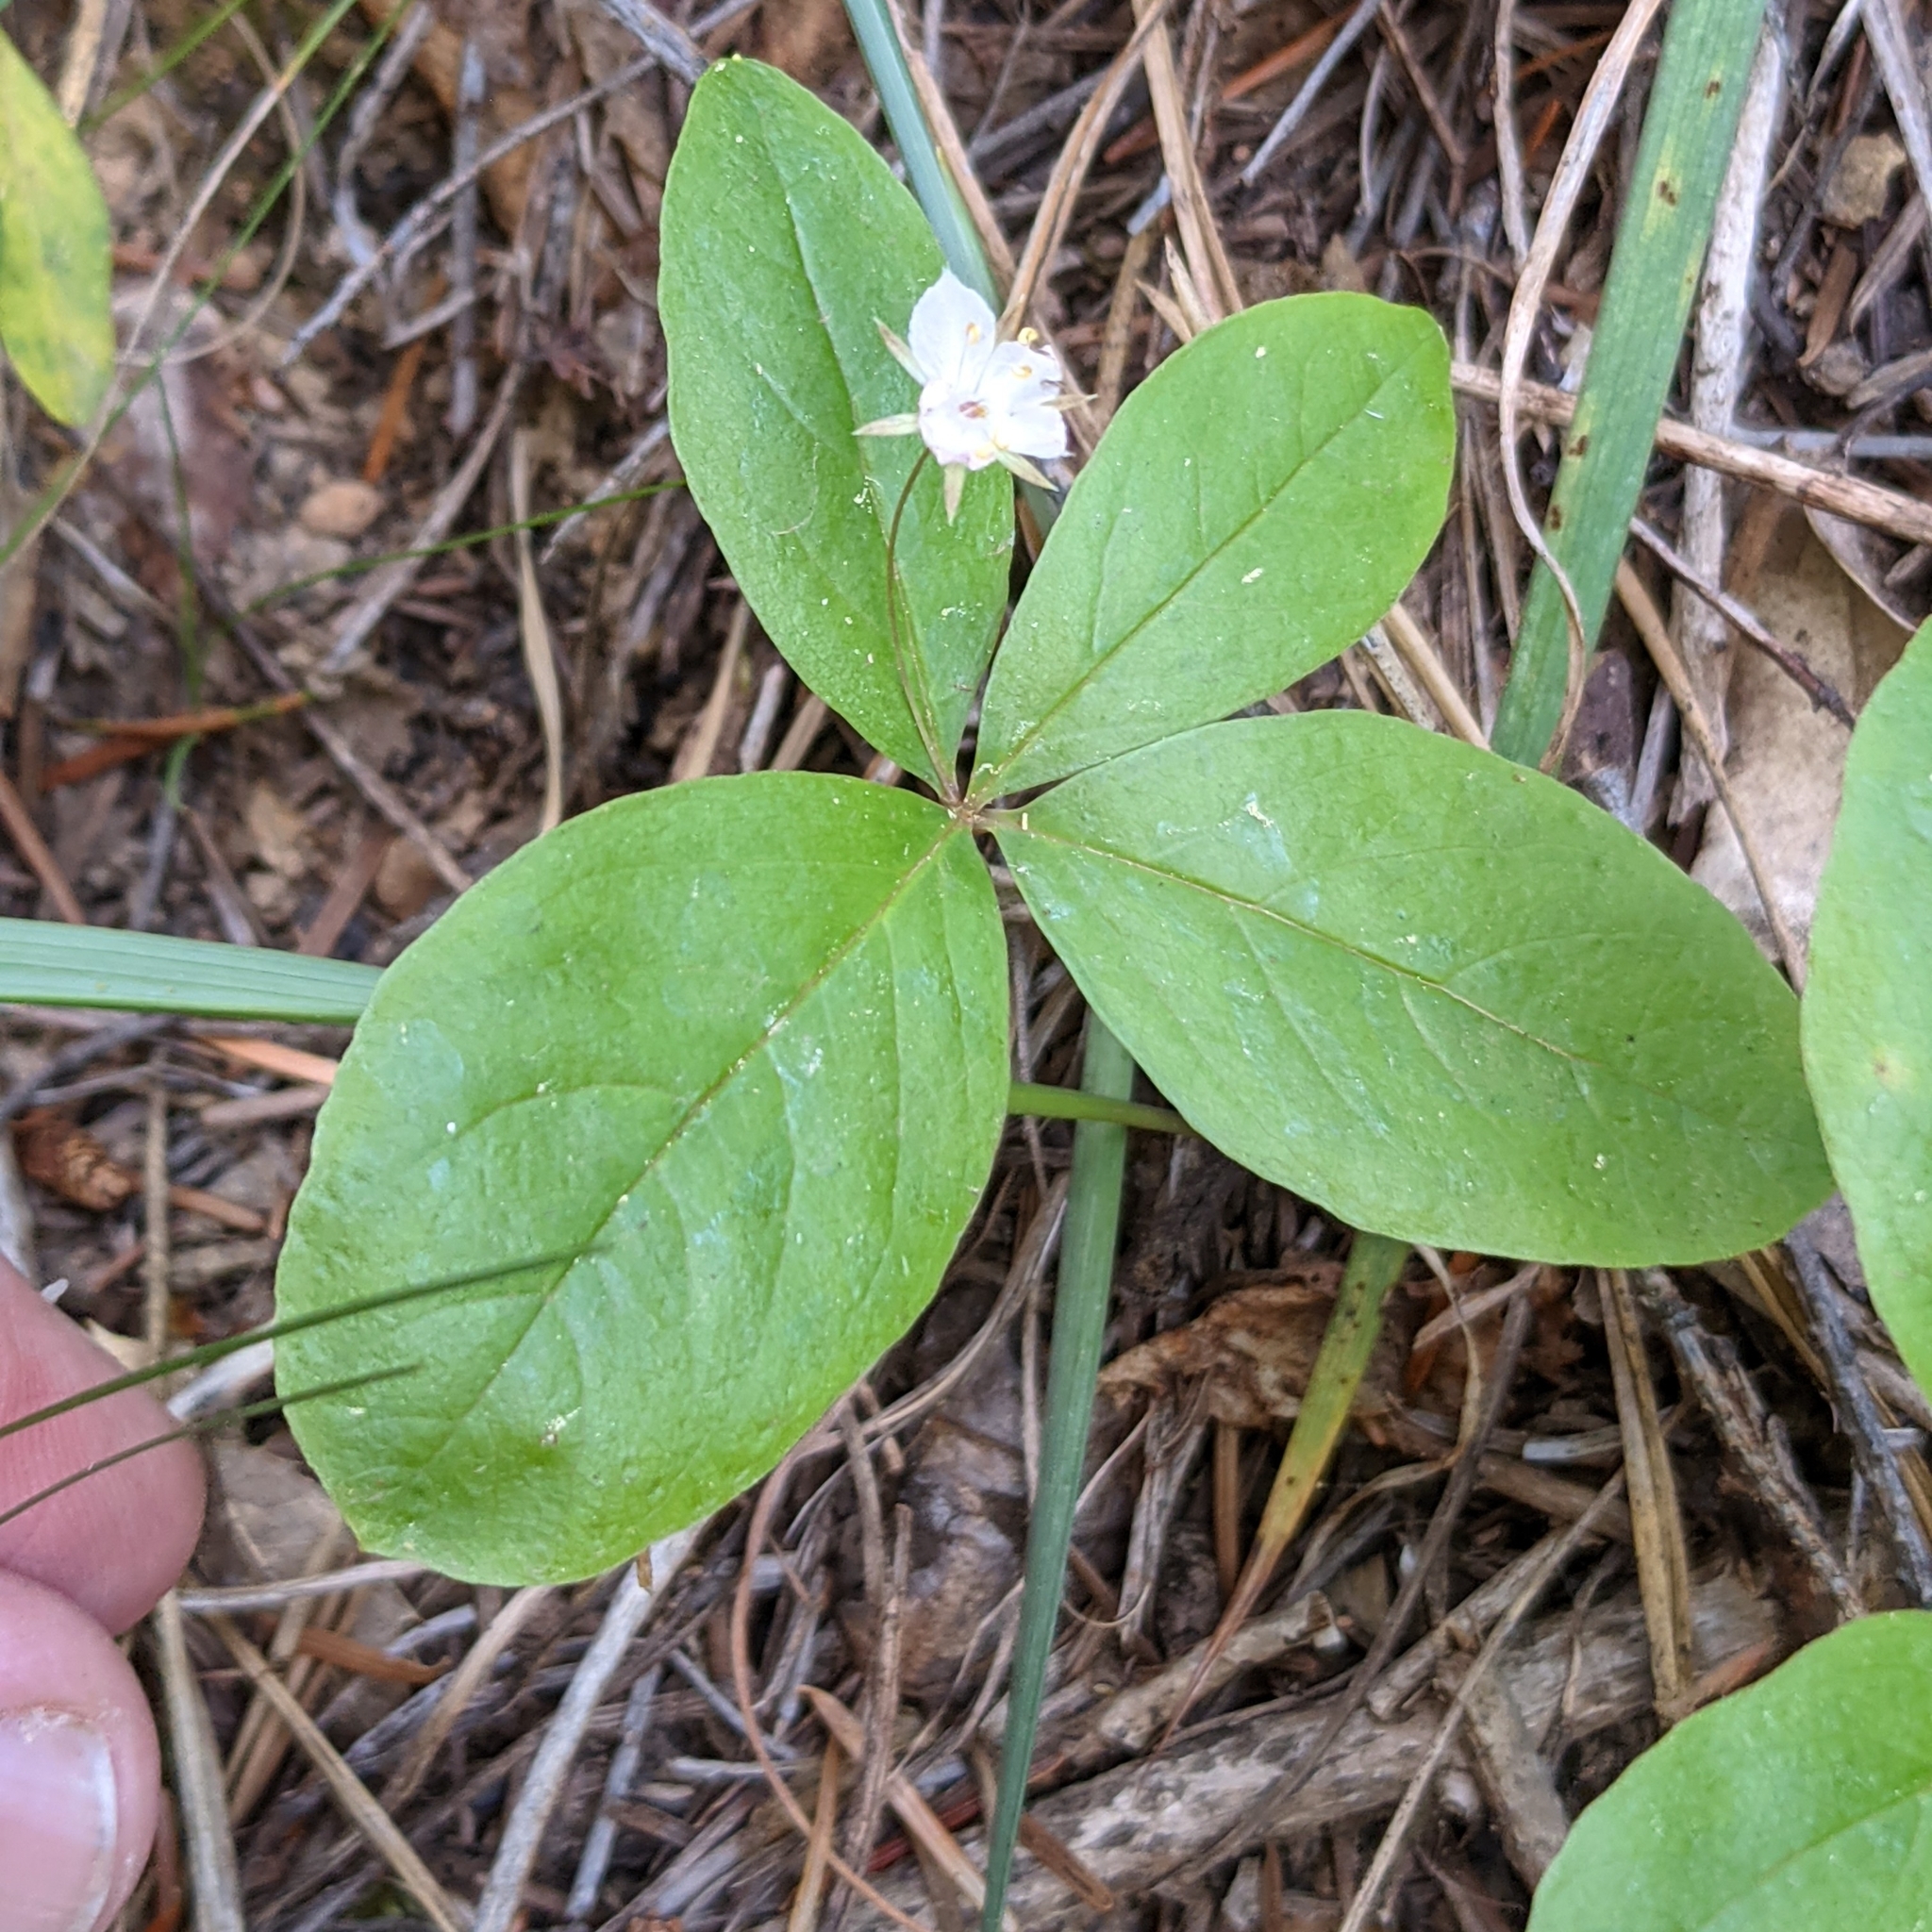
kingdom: Plantae
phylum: Tracheophyta
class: Magnoliopsida
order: Ericales
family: Primulaceae
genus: Lysimachia
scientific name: Lysimachia latifolia
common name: Pacific starflower
